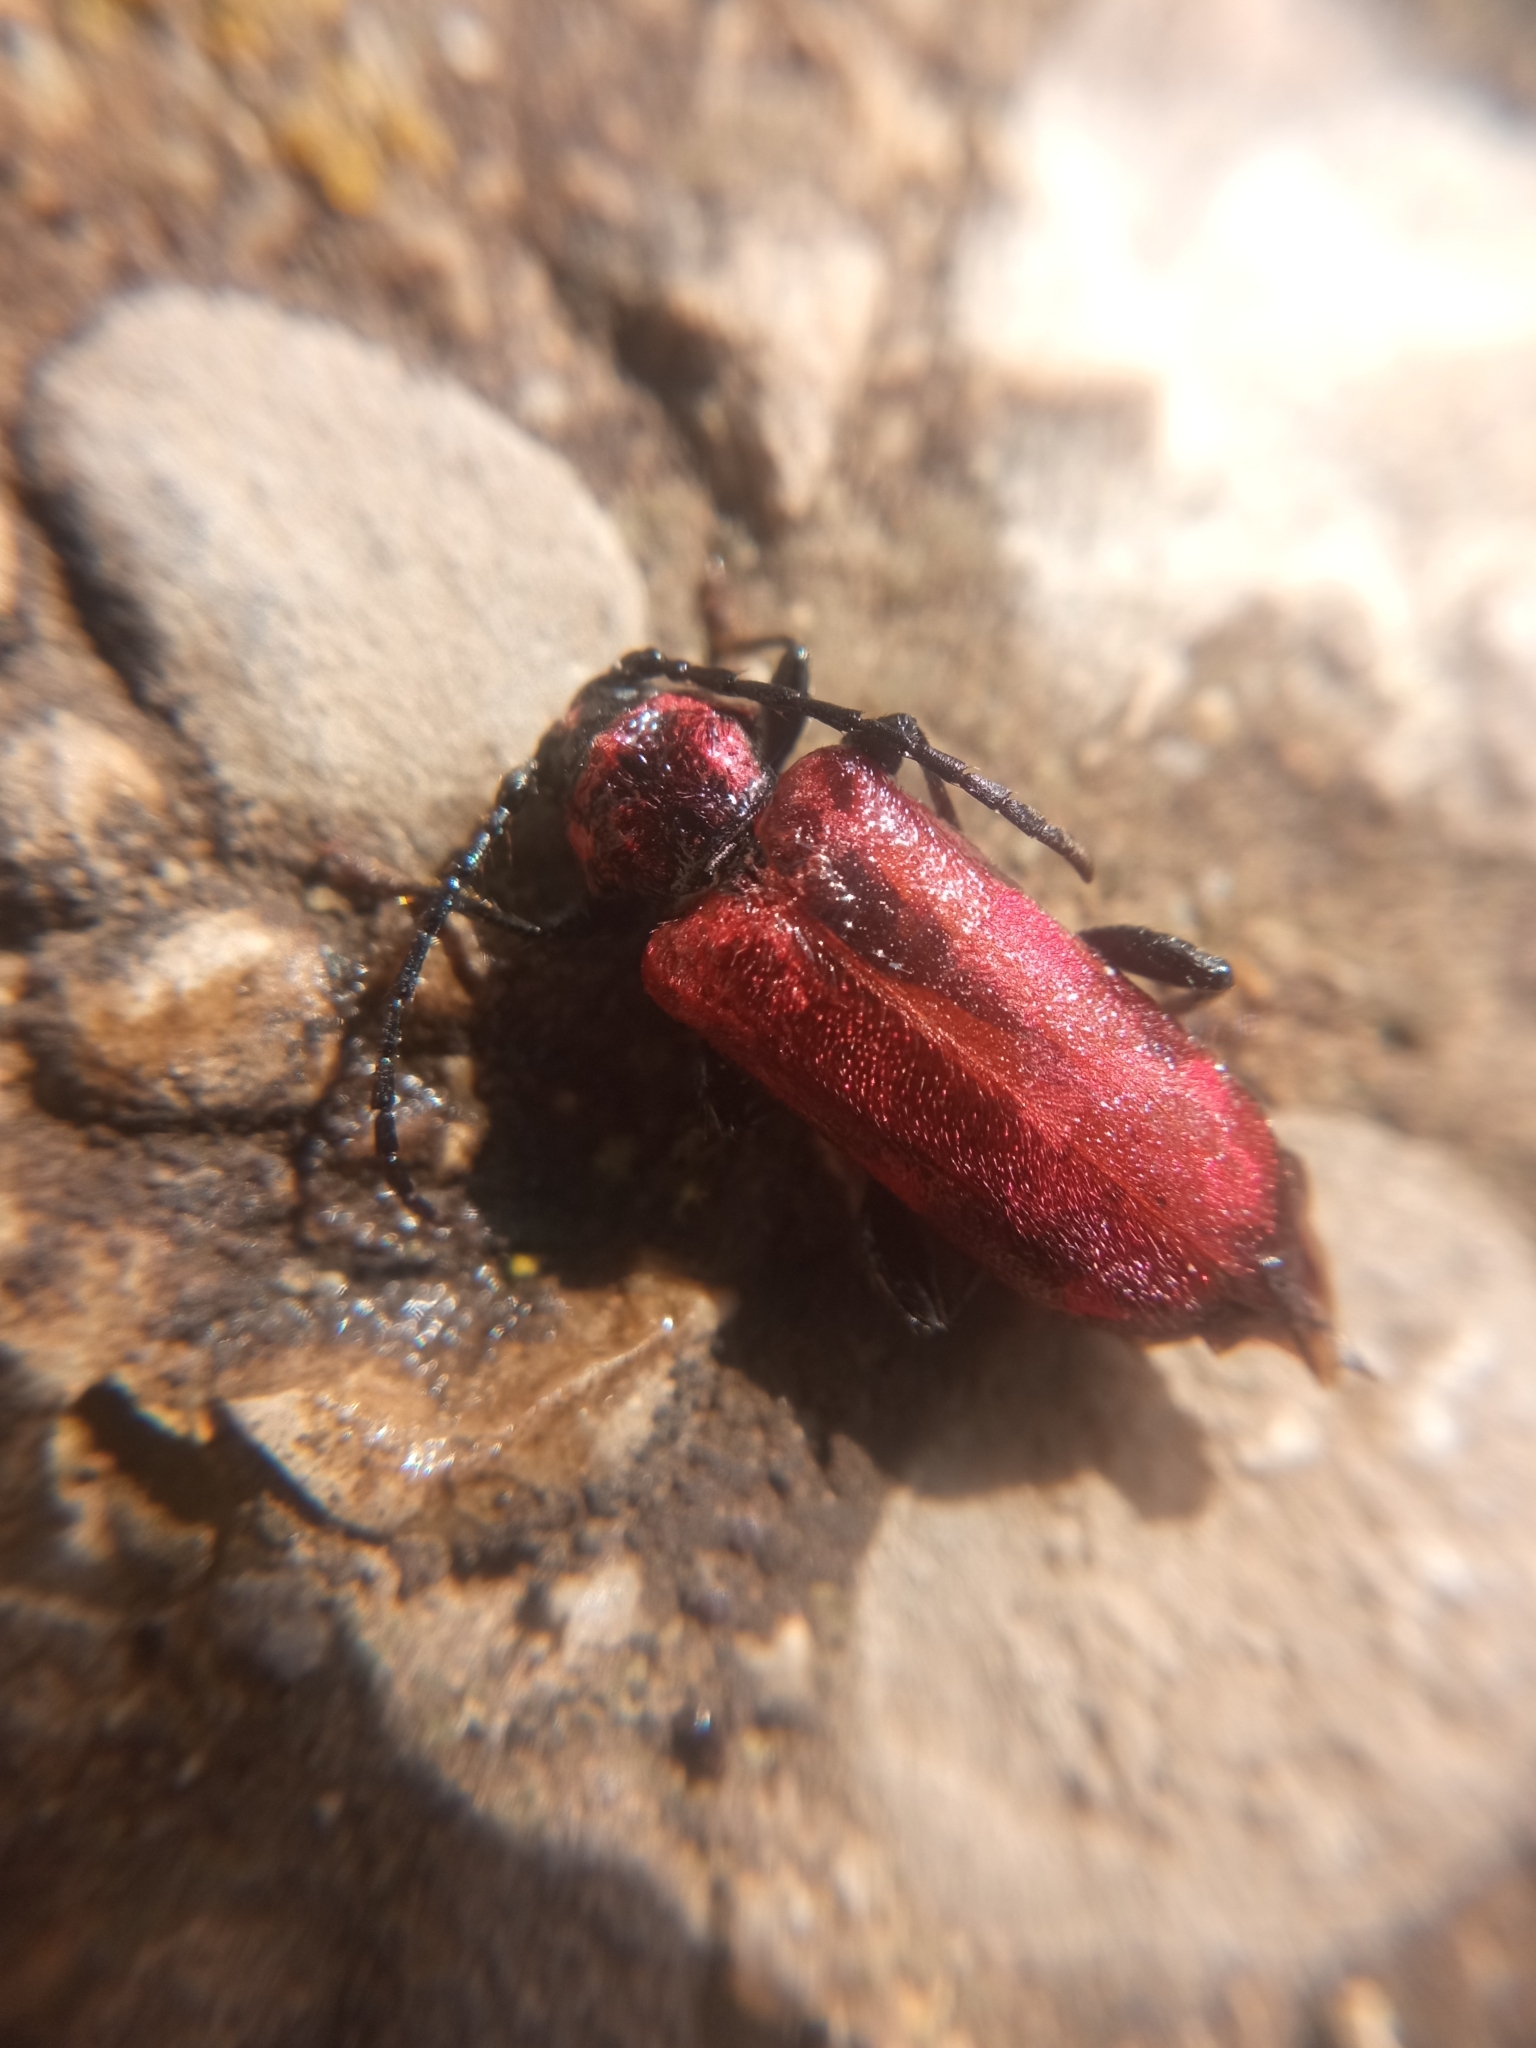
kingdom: Animalia
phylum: Arthropoda
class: Insecta
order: Coleoptera
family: Cerambycidae
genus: Pyrrhidium
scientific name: Pyrrhidium sanguineum
